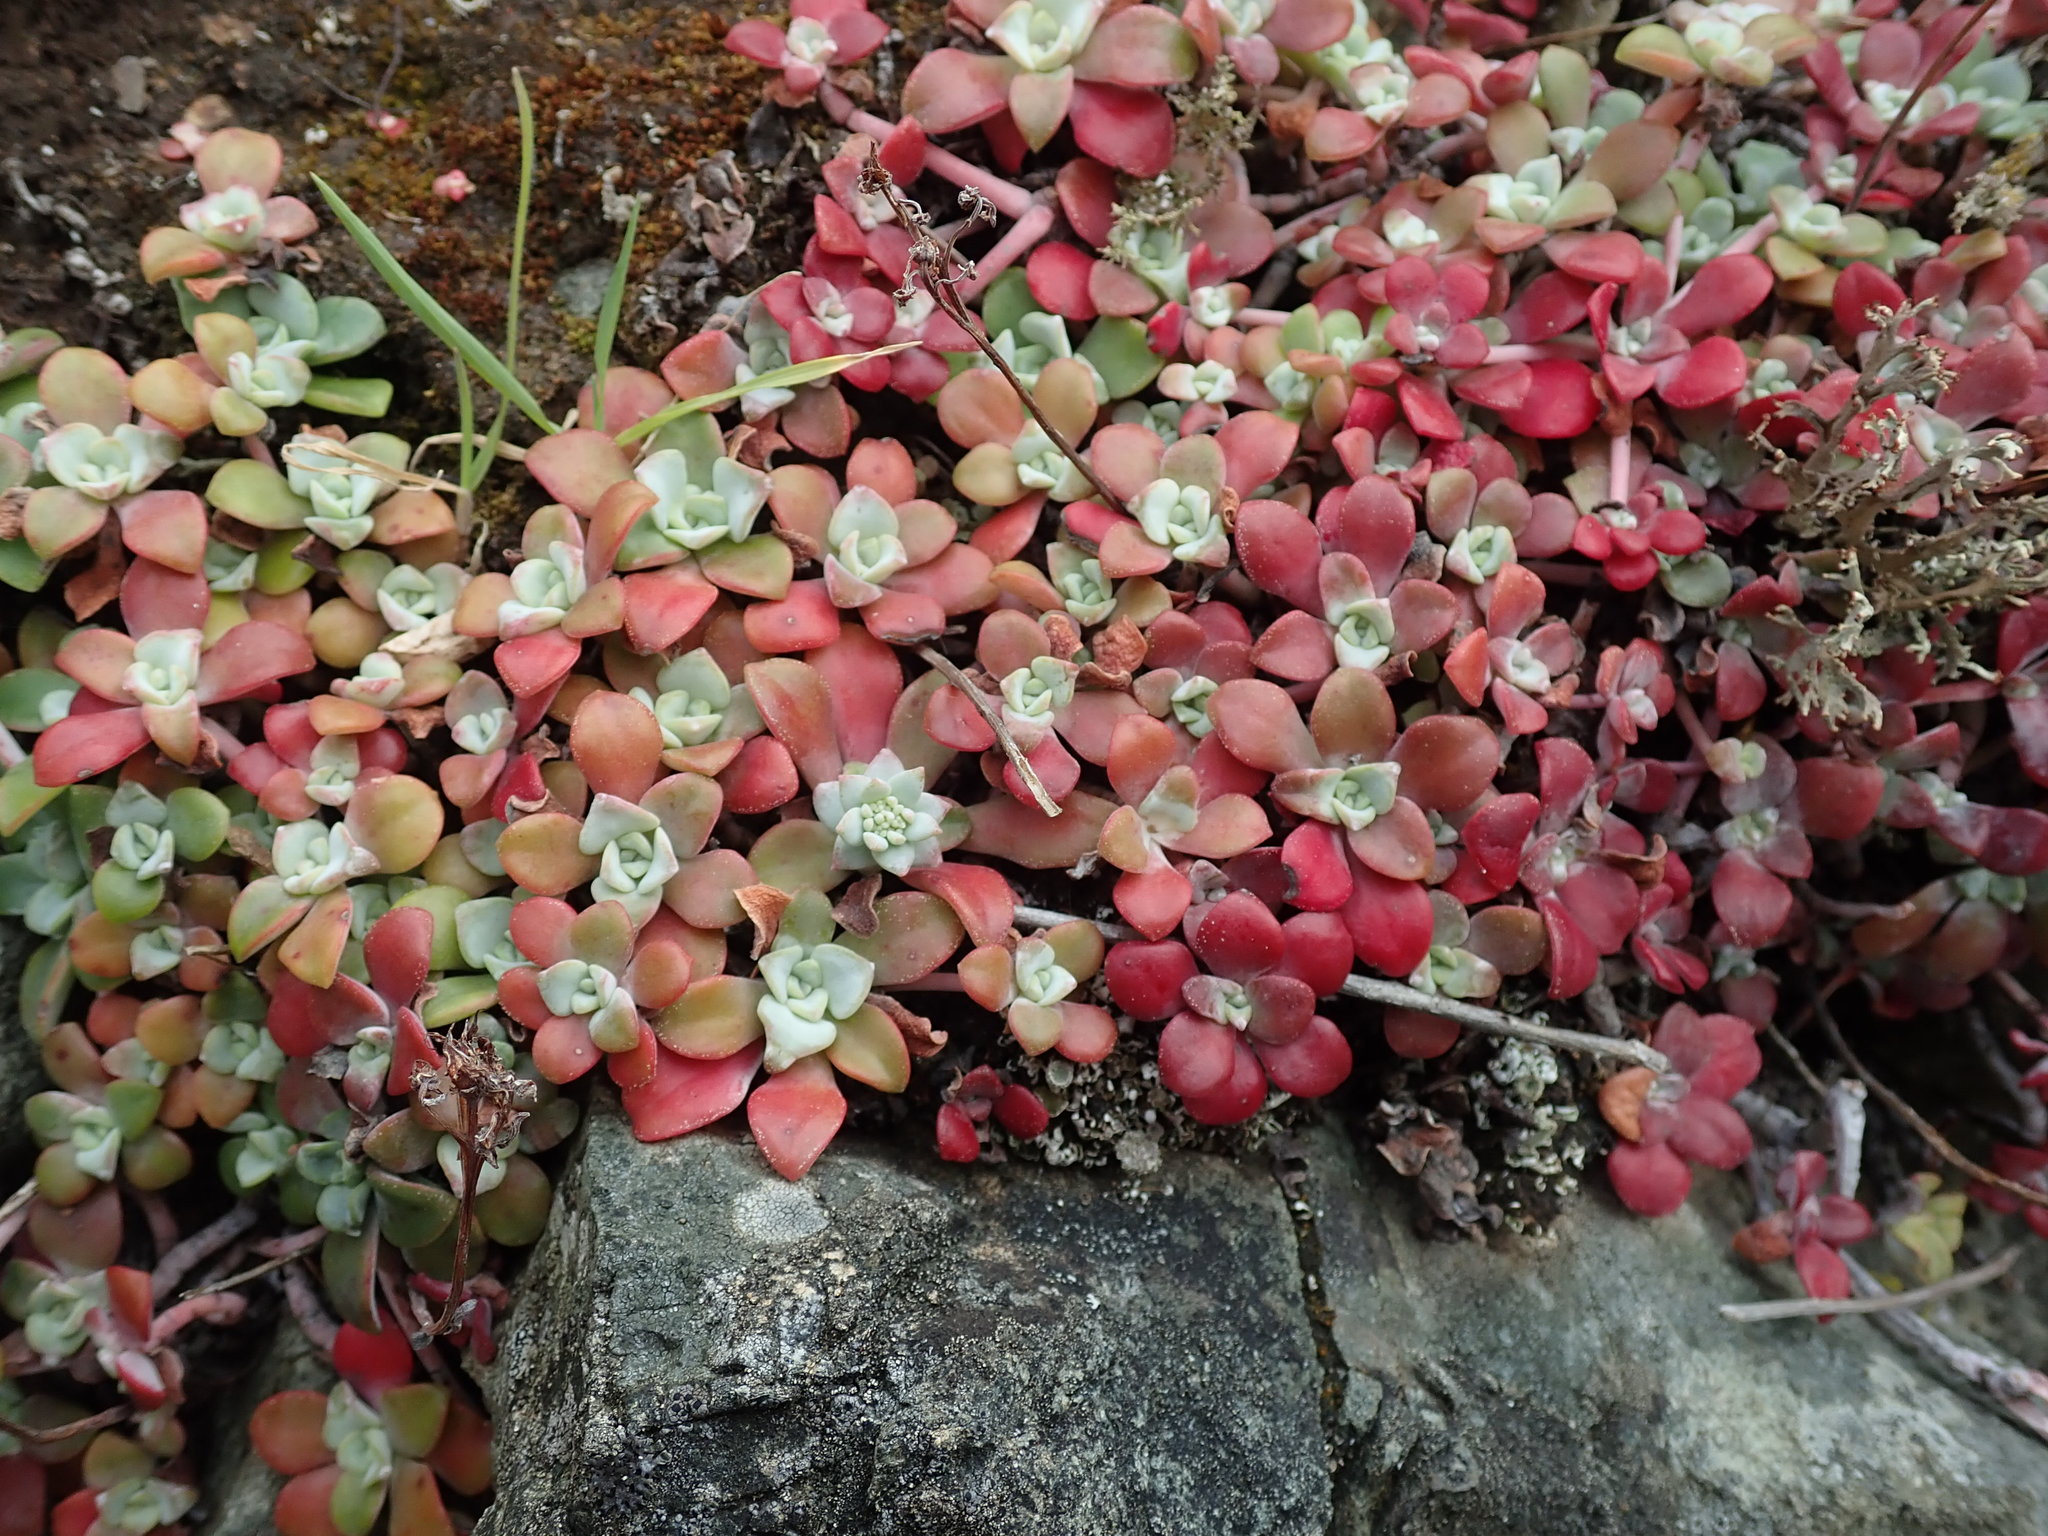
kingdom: Plantae
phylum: Tracheophyta
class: Magnoliopsida
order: Saxifragales
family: Crassulaceae
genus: Sedum
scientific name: Sedum spathulifolium
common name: Colorado stonecrop
